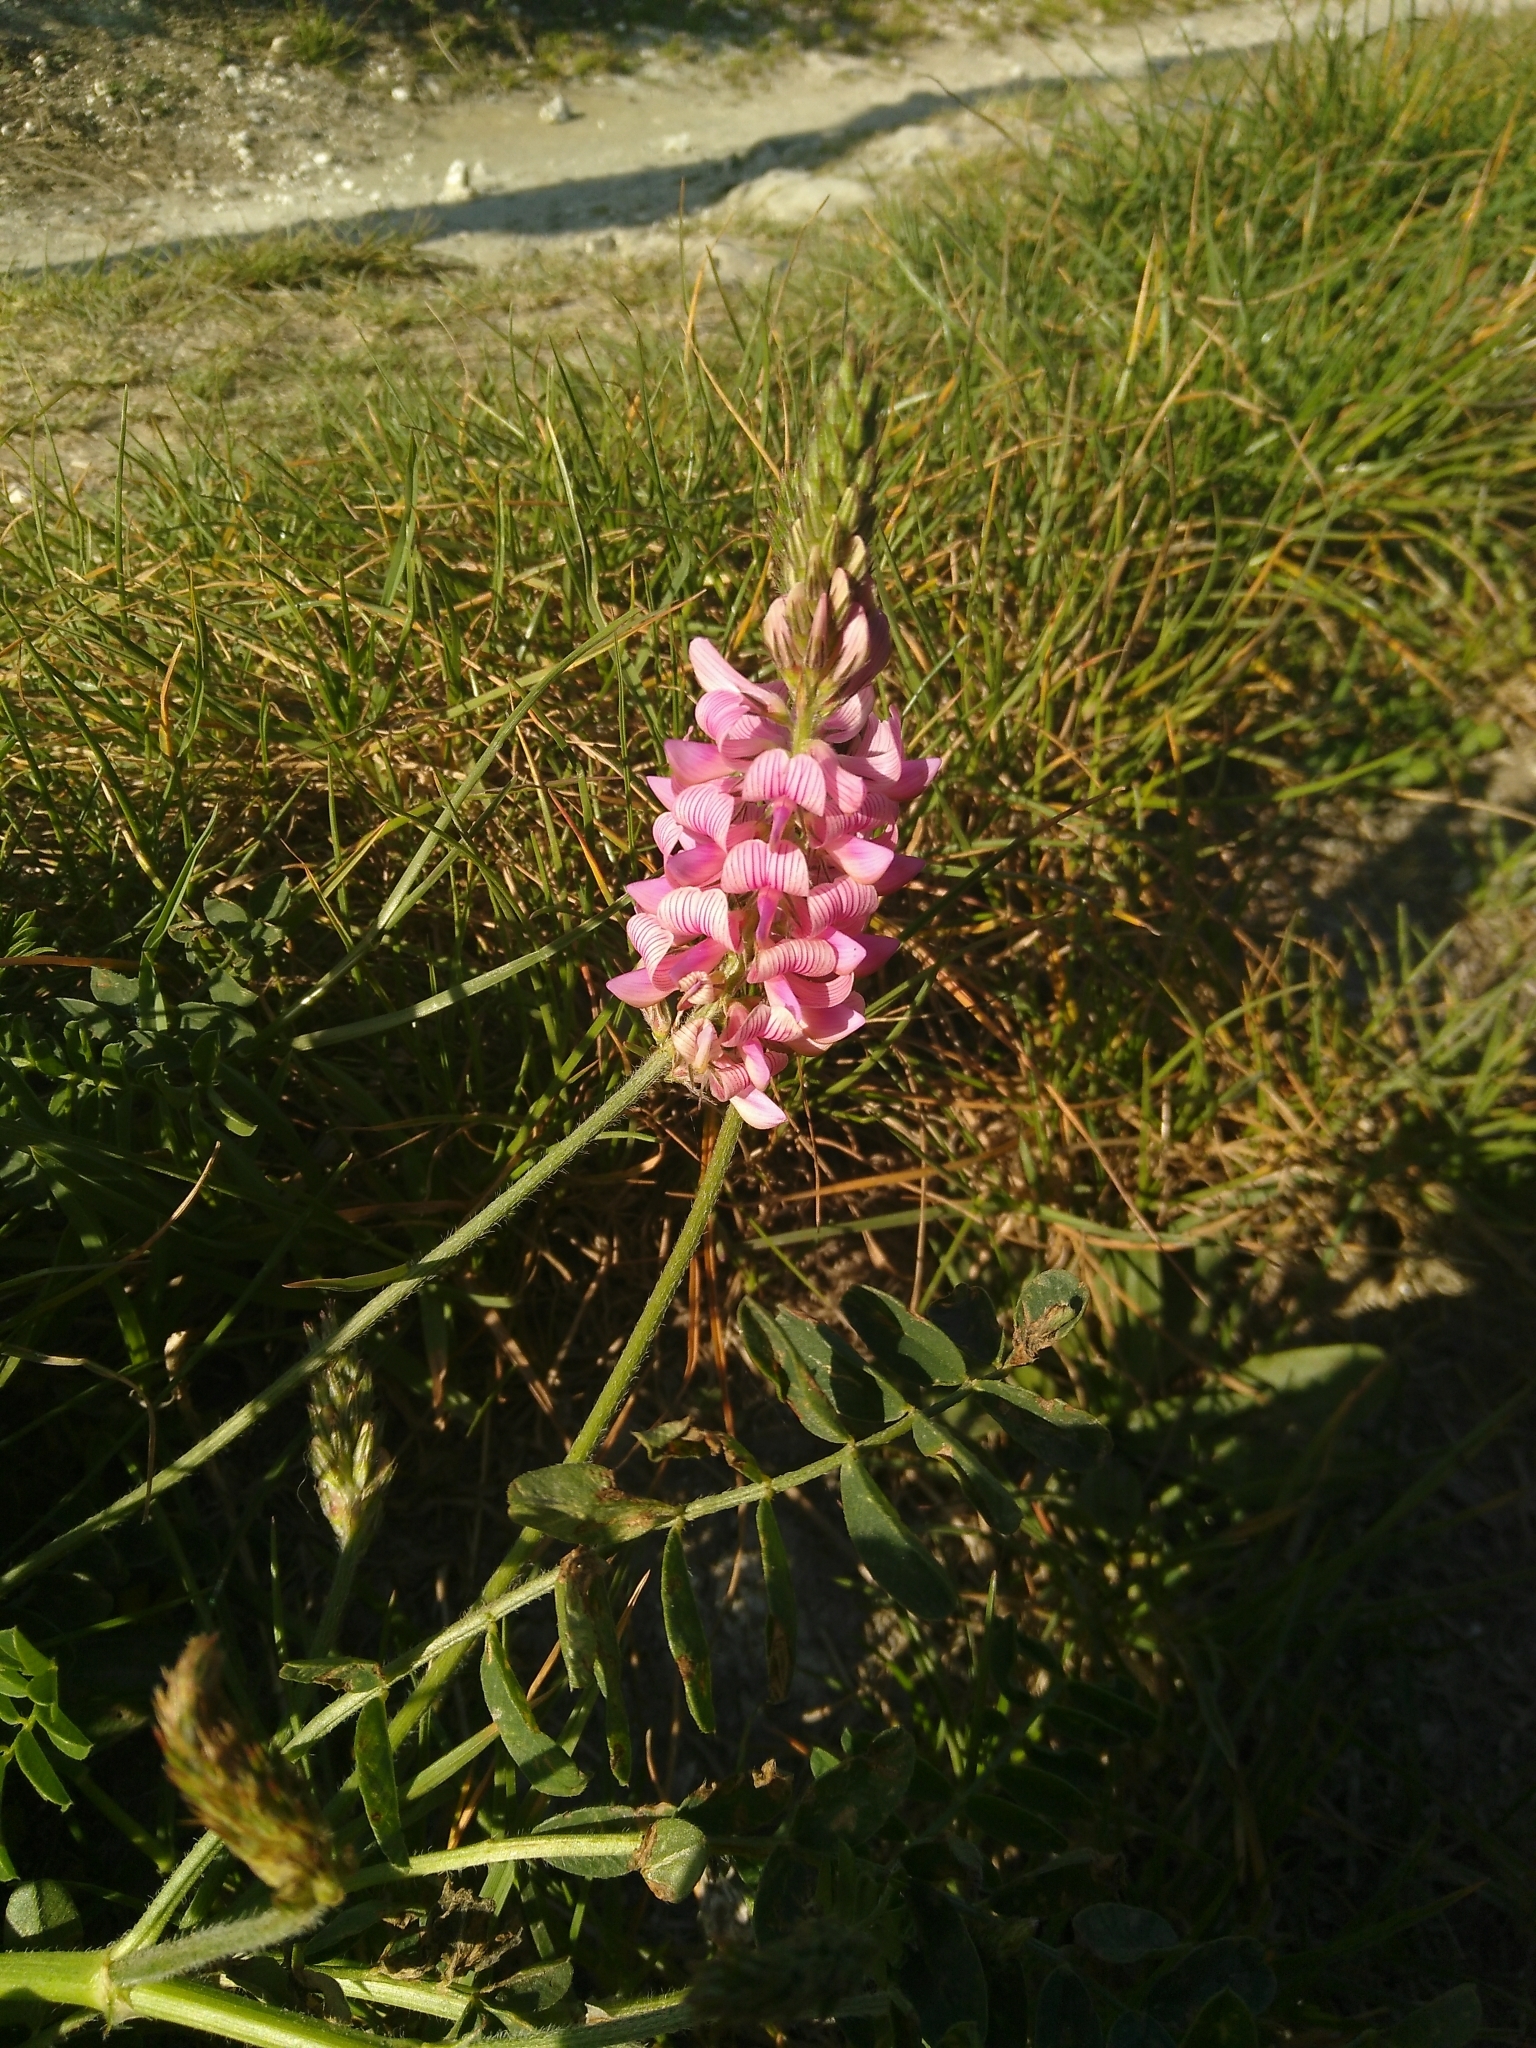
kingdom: Plantae
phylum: Tracheophyta
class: Magnoliopsida
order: Fabales
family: Fabaceae
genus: Onobrychis
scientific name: Onobrychis viciifolia
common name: Sainfoin
